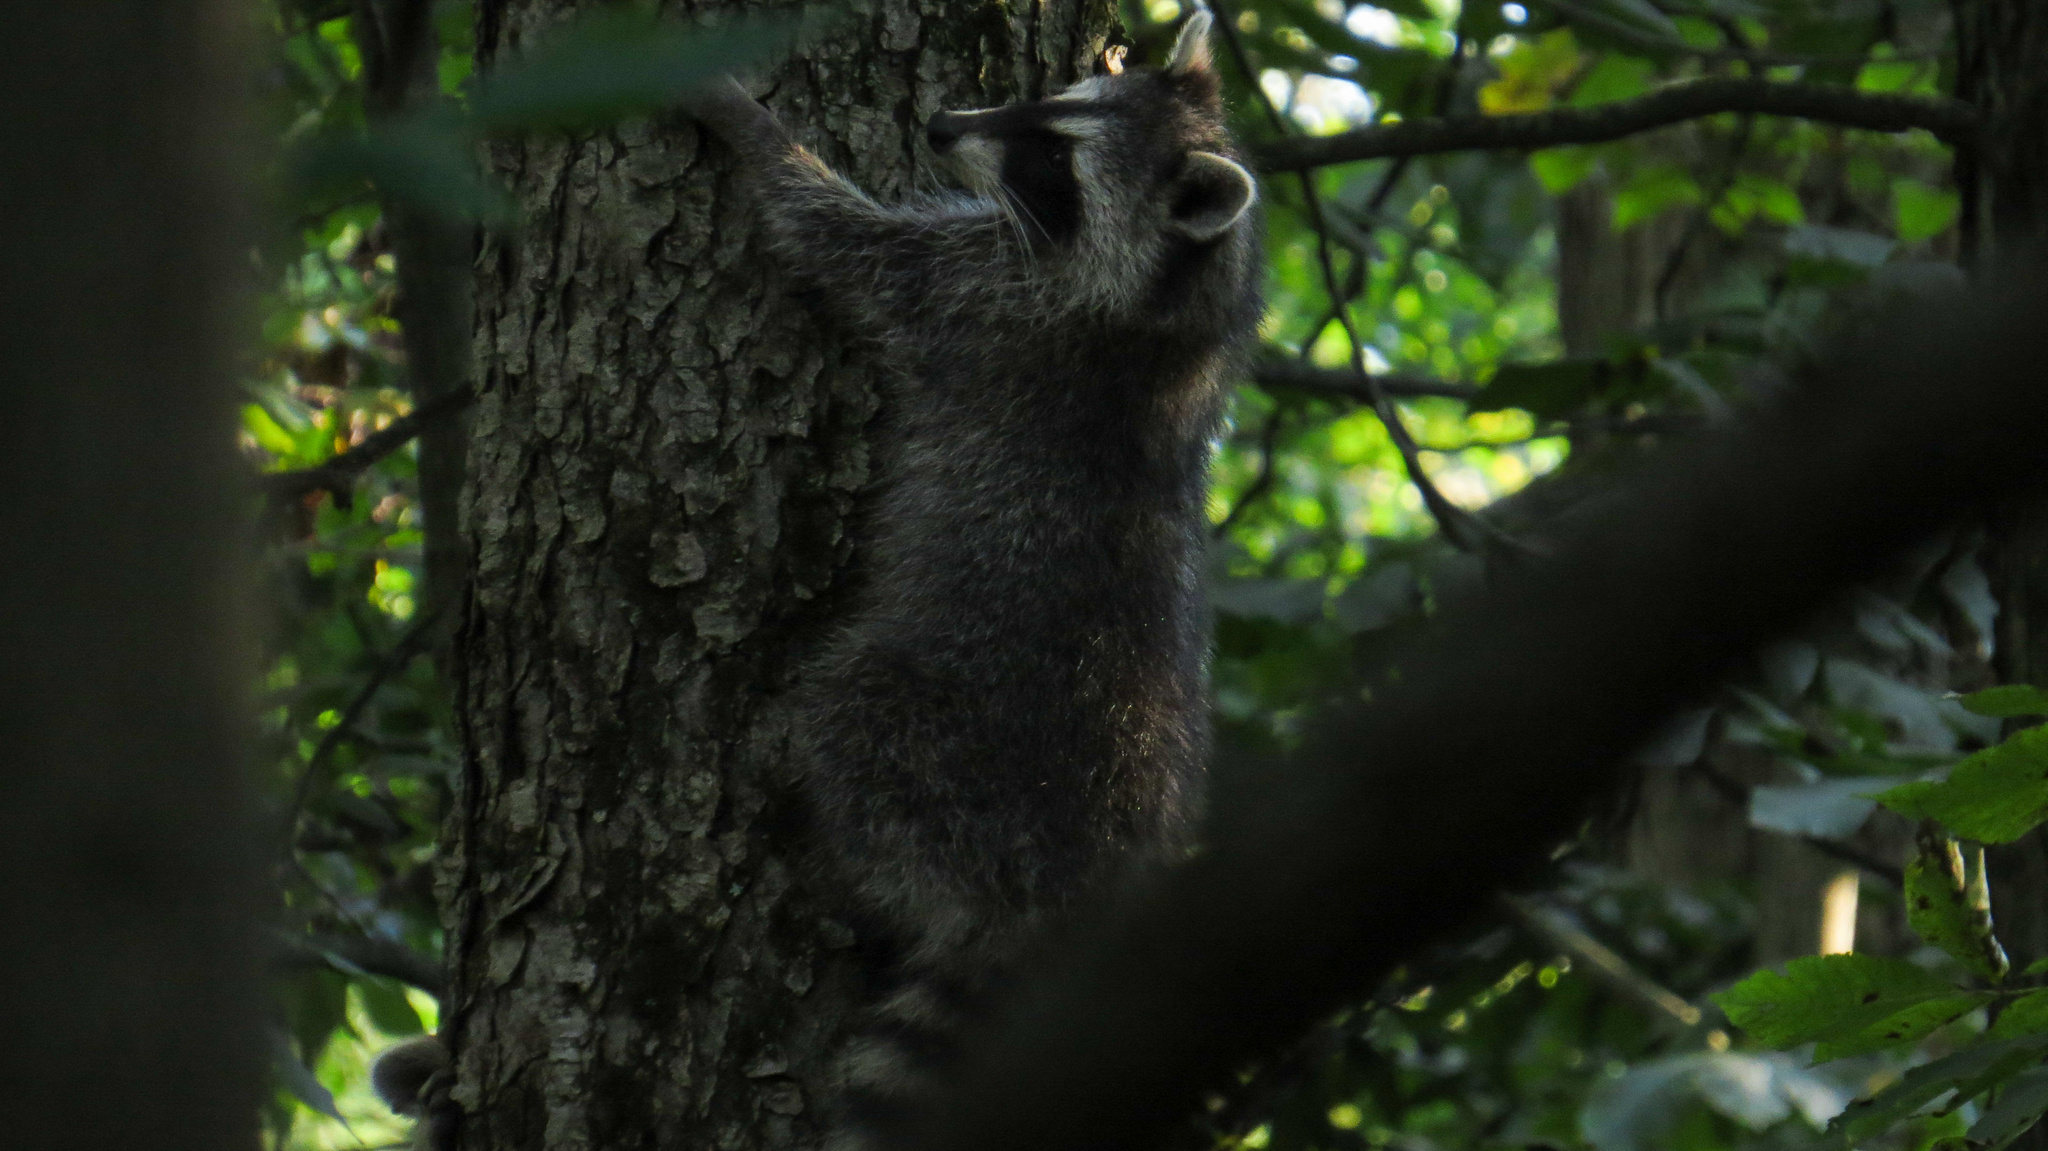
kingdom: Animalia
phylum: Chordata
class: Mammalia
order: Carnivora
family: Procyonidae
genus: Procyon
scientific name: Procyon lotor
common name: Raccoon
